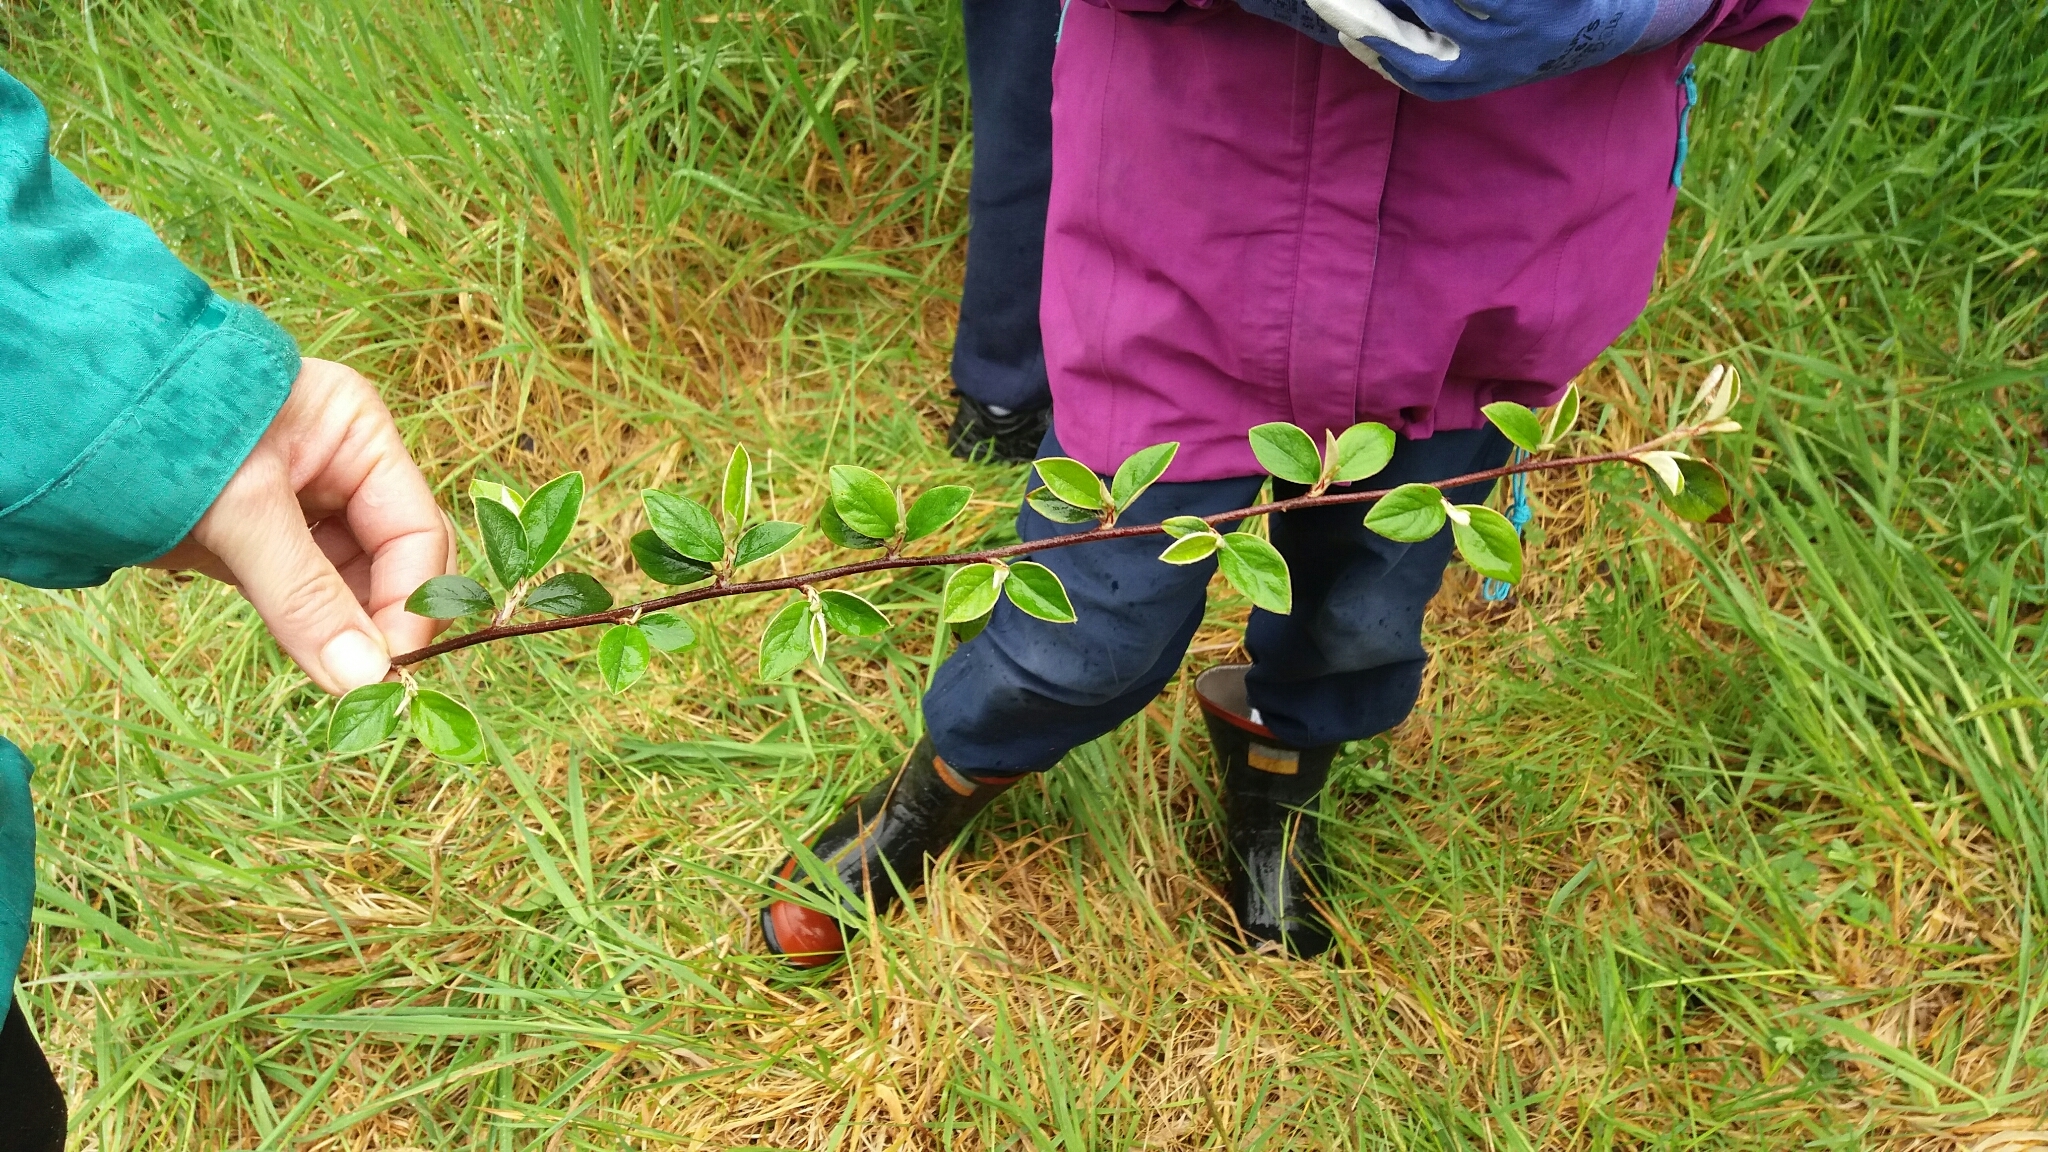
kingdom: Plantae
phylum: Tracheophyta
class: Magnoliopsida
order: Rosales
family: Rosaceae
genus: Cotoneaster
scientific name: Cotoneaster franchetii
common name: Franchet's cotoneaster
